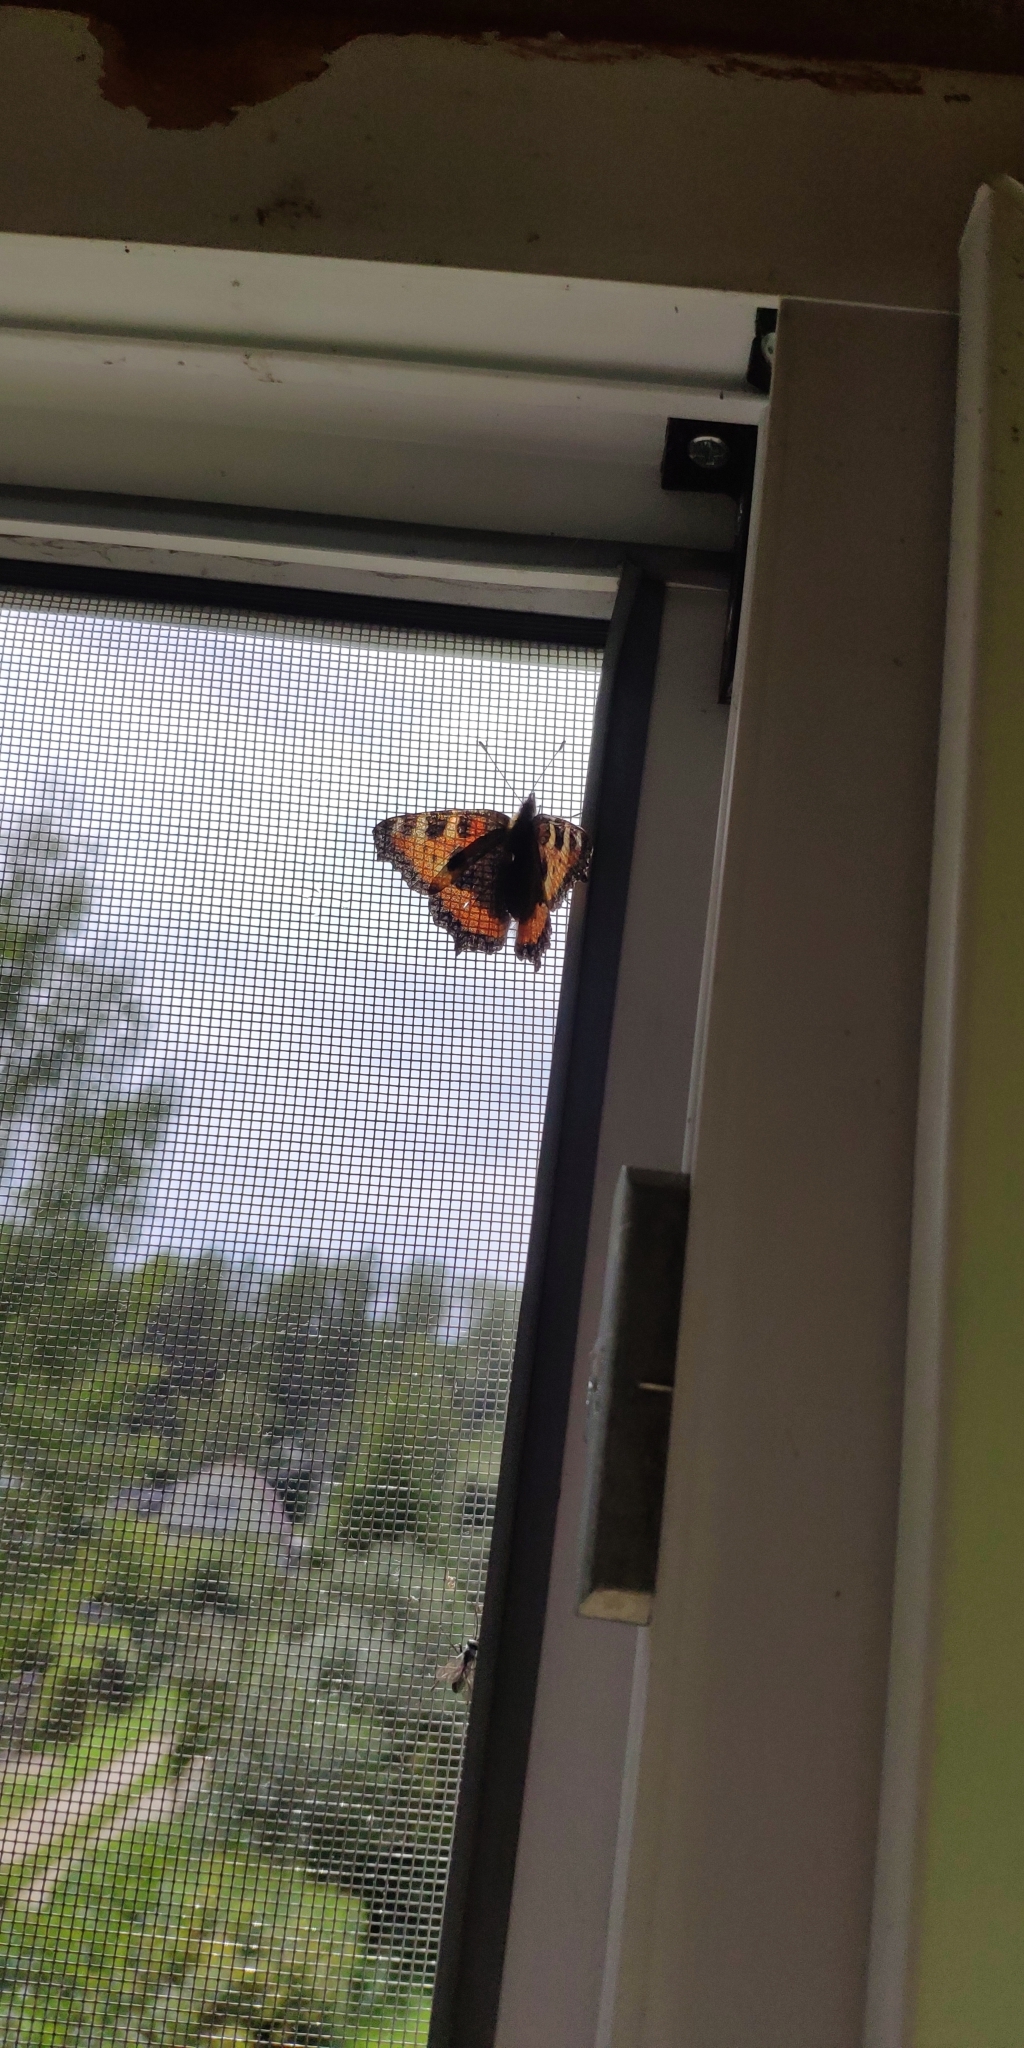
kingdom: Animalia
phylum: Arthropoda
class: Insecta
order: Lepidoptera
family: Nymphalidae
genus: Aglais
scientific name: Aglais urticae
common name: Small tortoiseshell
